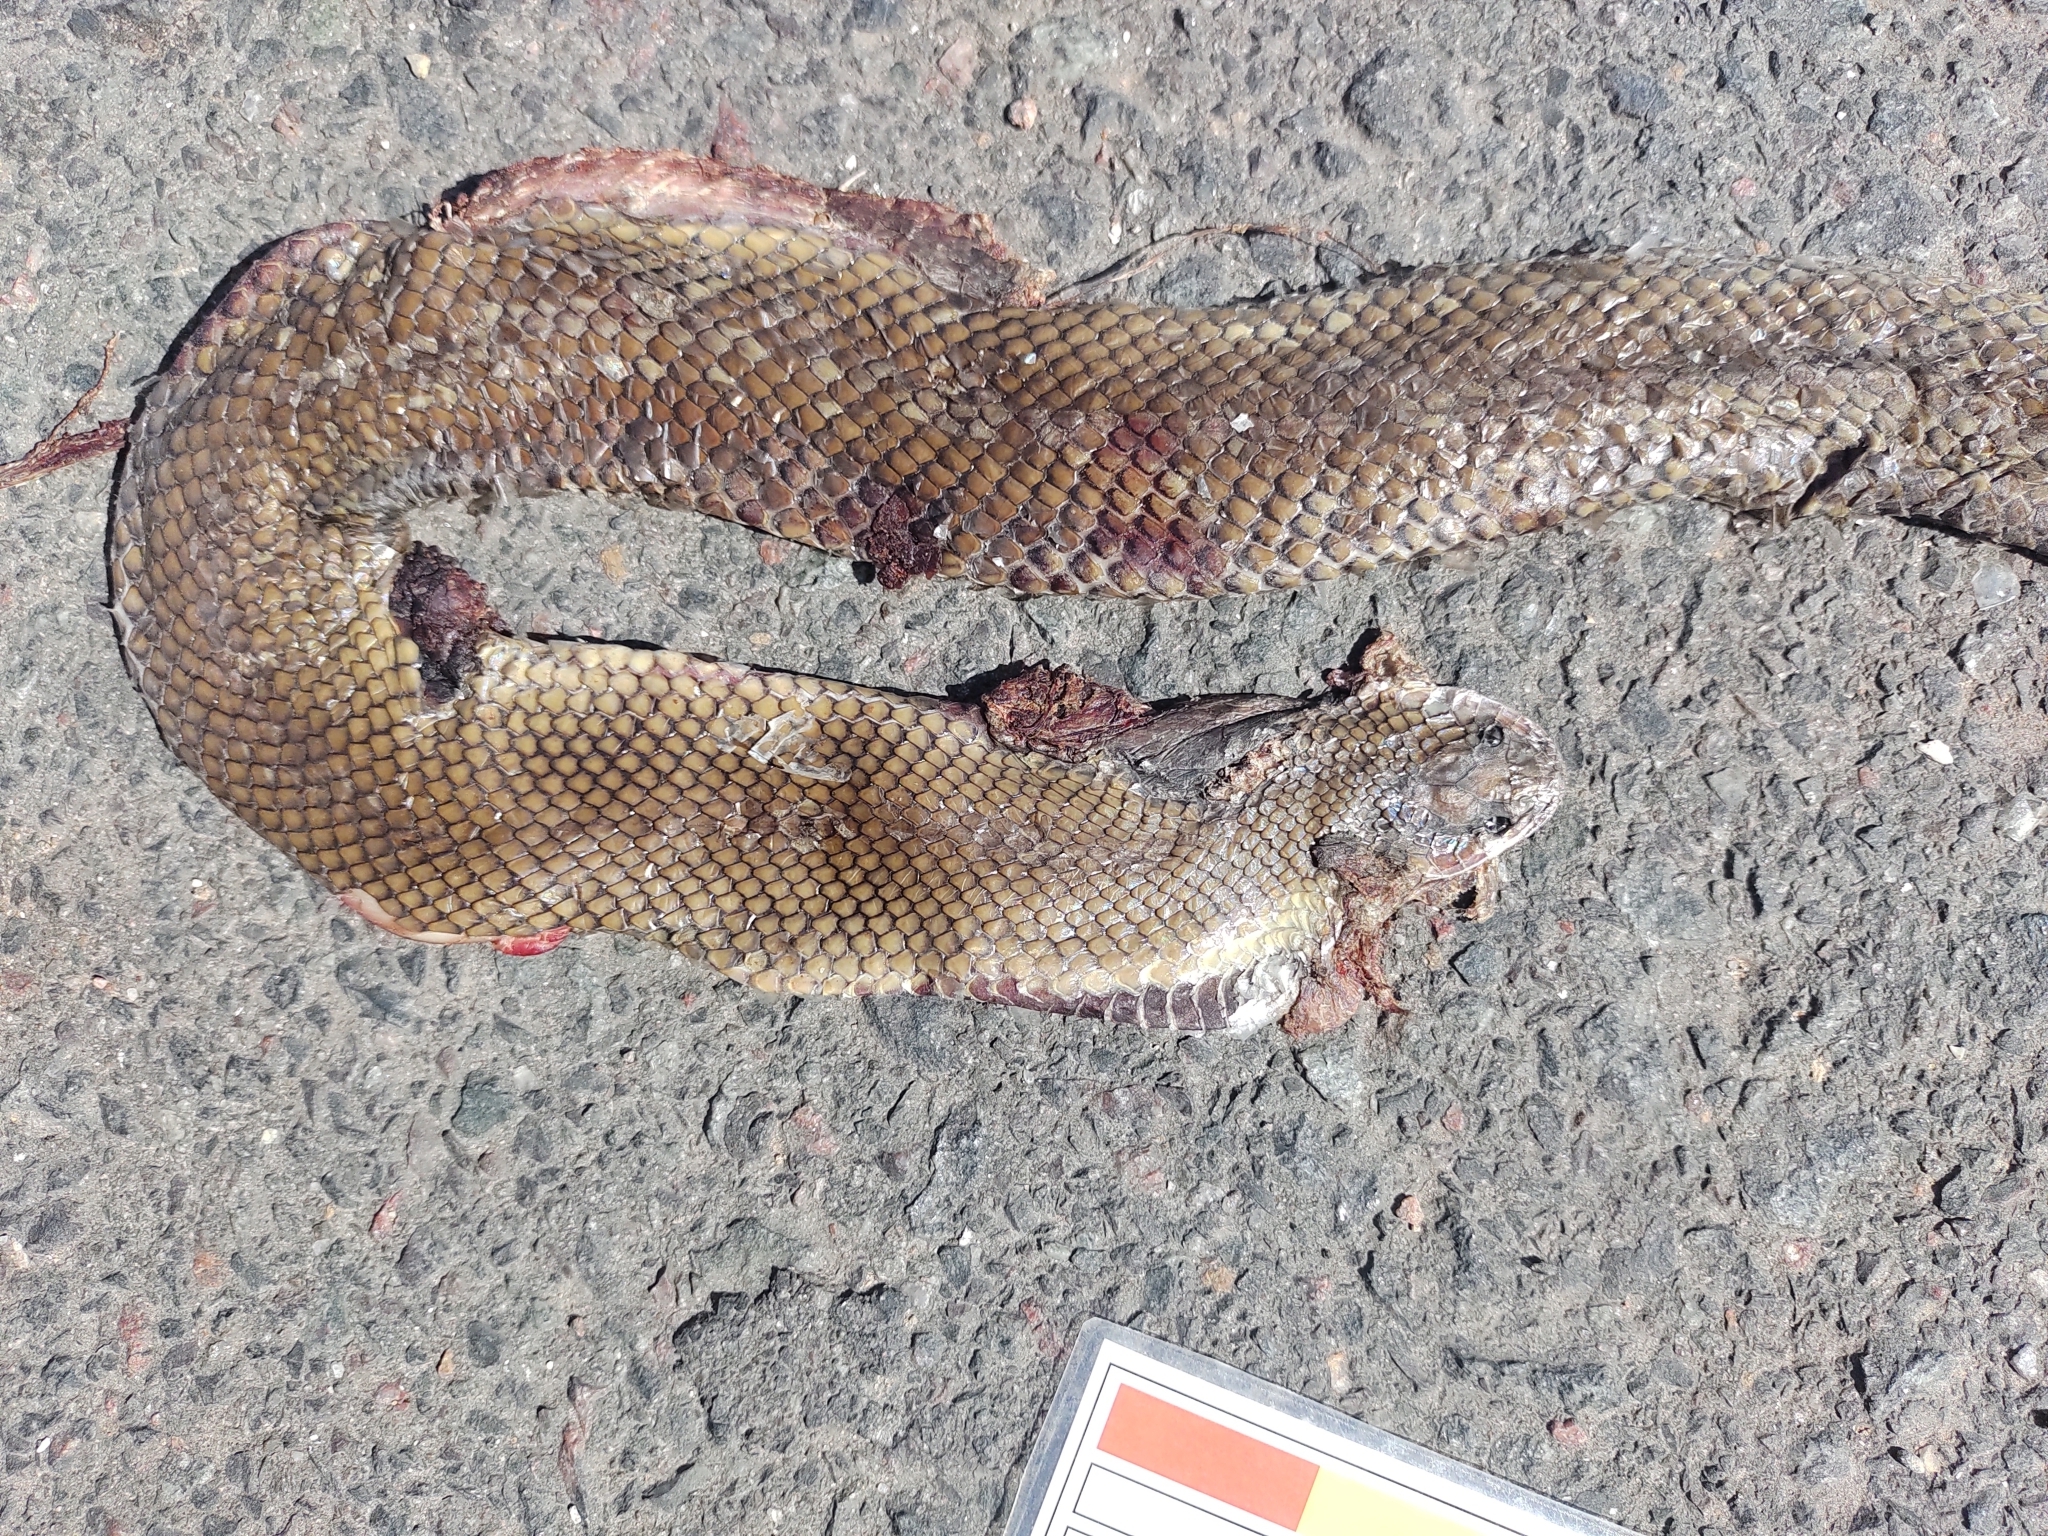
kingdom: Animalia
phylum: Chordata
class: Squamata
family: Colubridae
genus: Paraphimophis
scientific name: Paraphimophis rusticus
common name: Culebra
